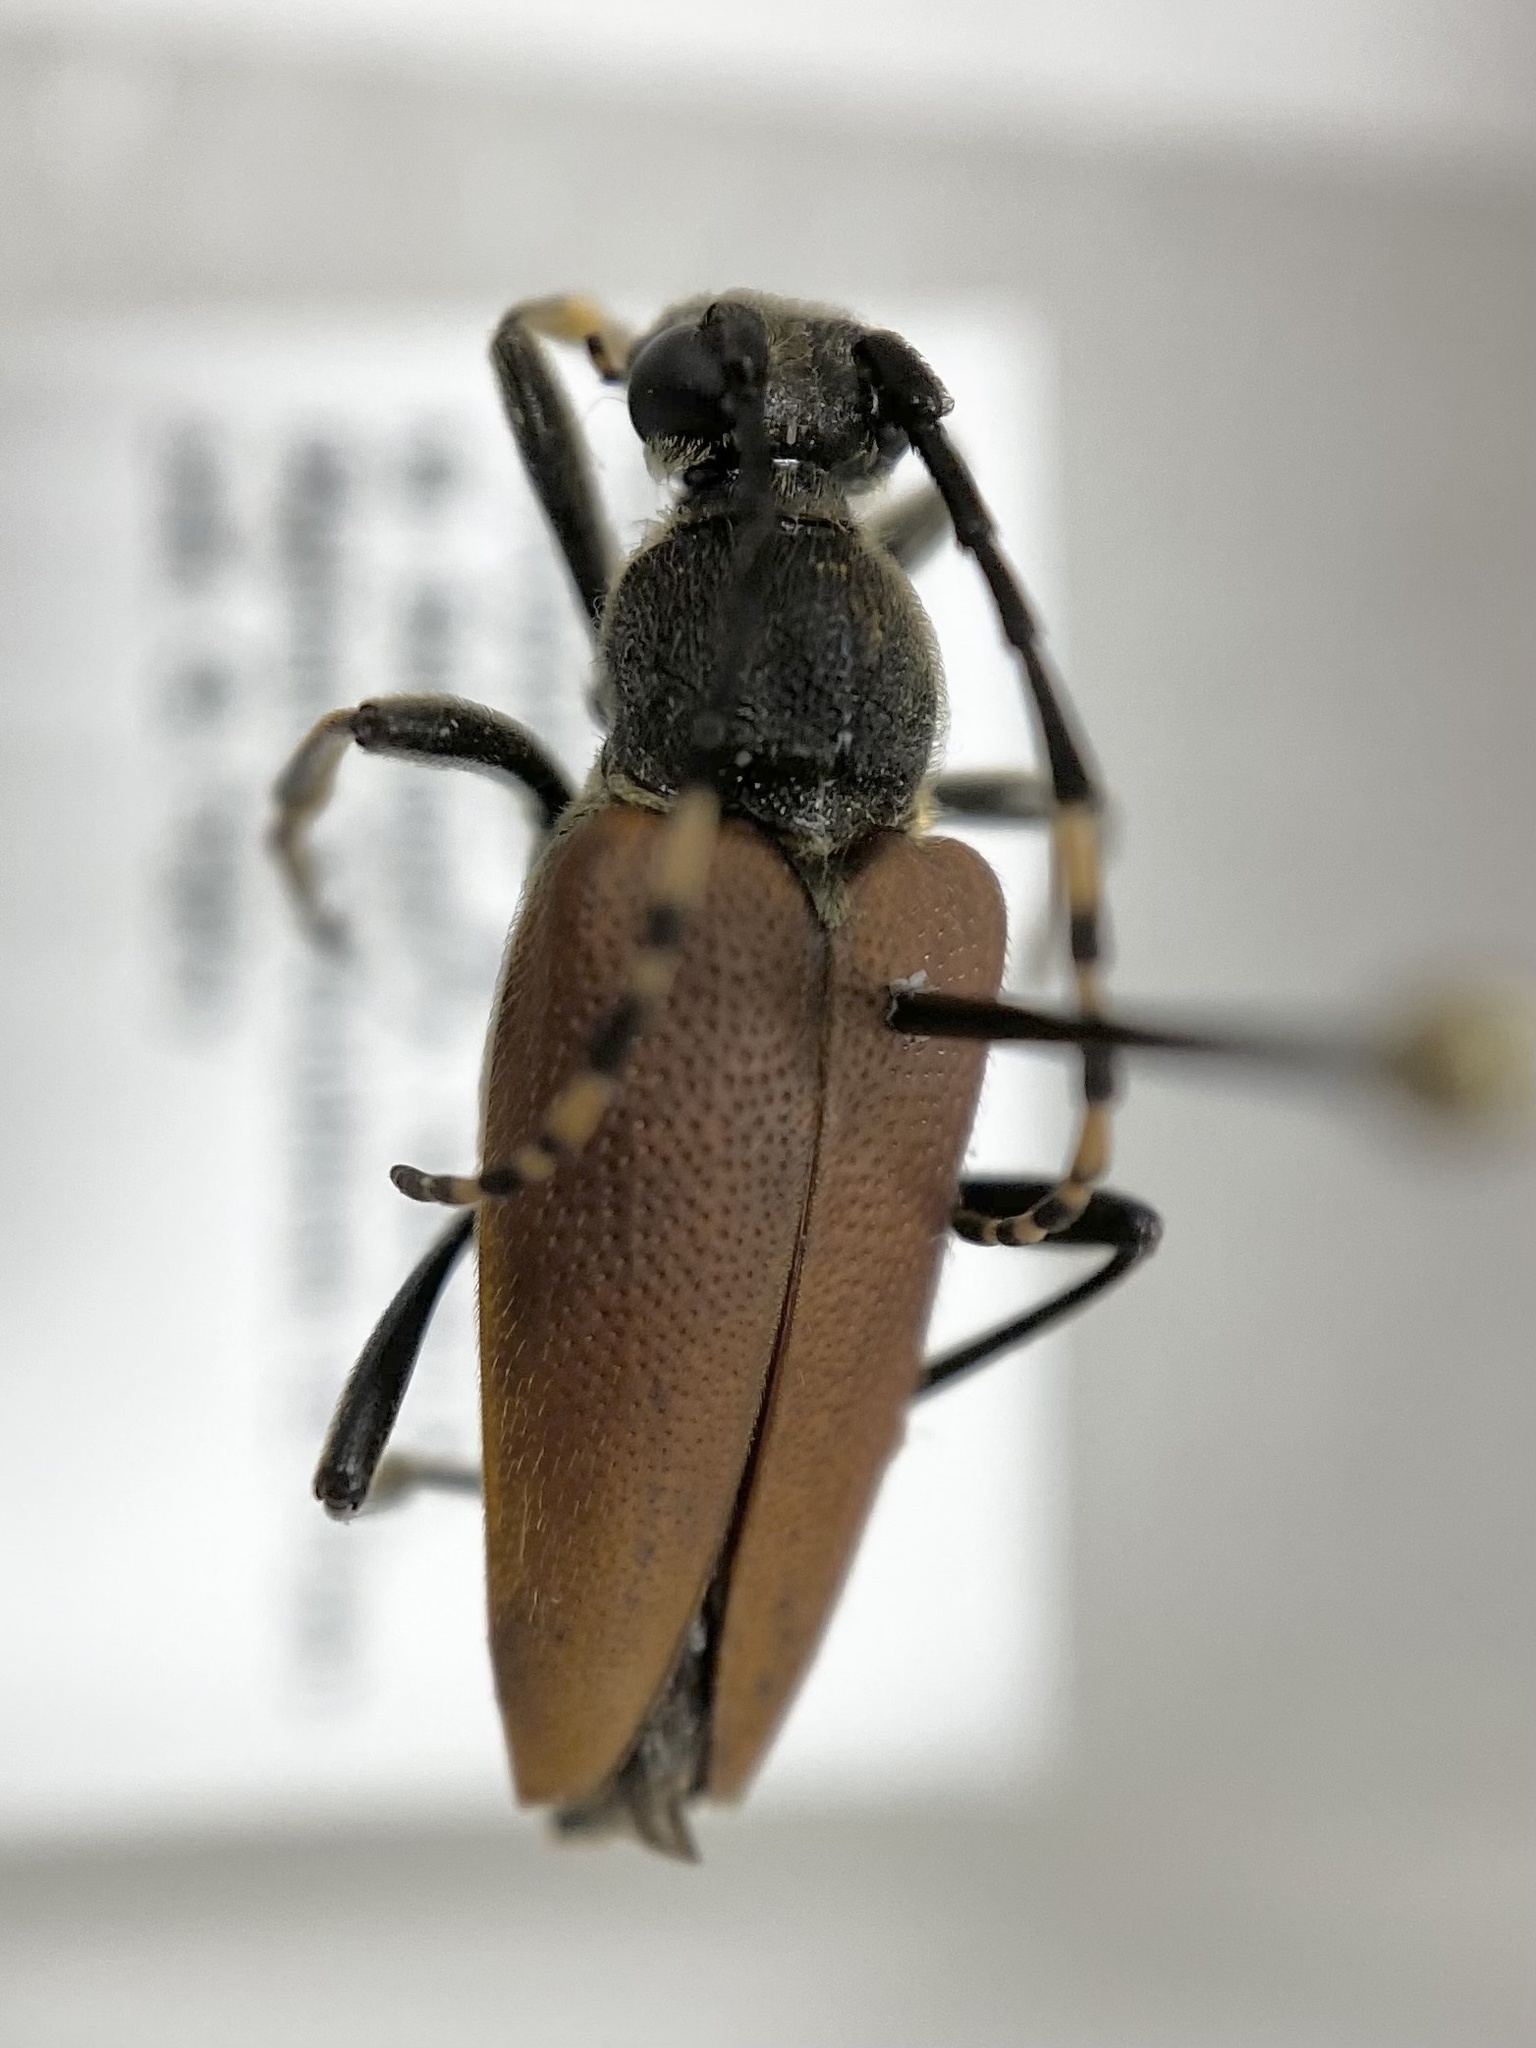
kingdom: Animalia
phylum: Arthropoda
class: Insecta
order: Coleoptera
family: Cerambycidae
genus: Brachyleptura
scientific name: Brachyleptura rubrica
